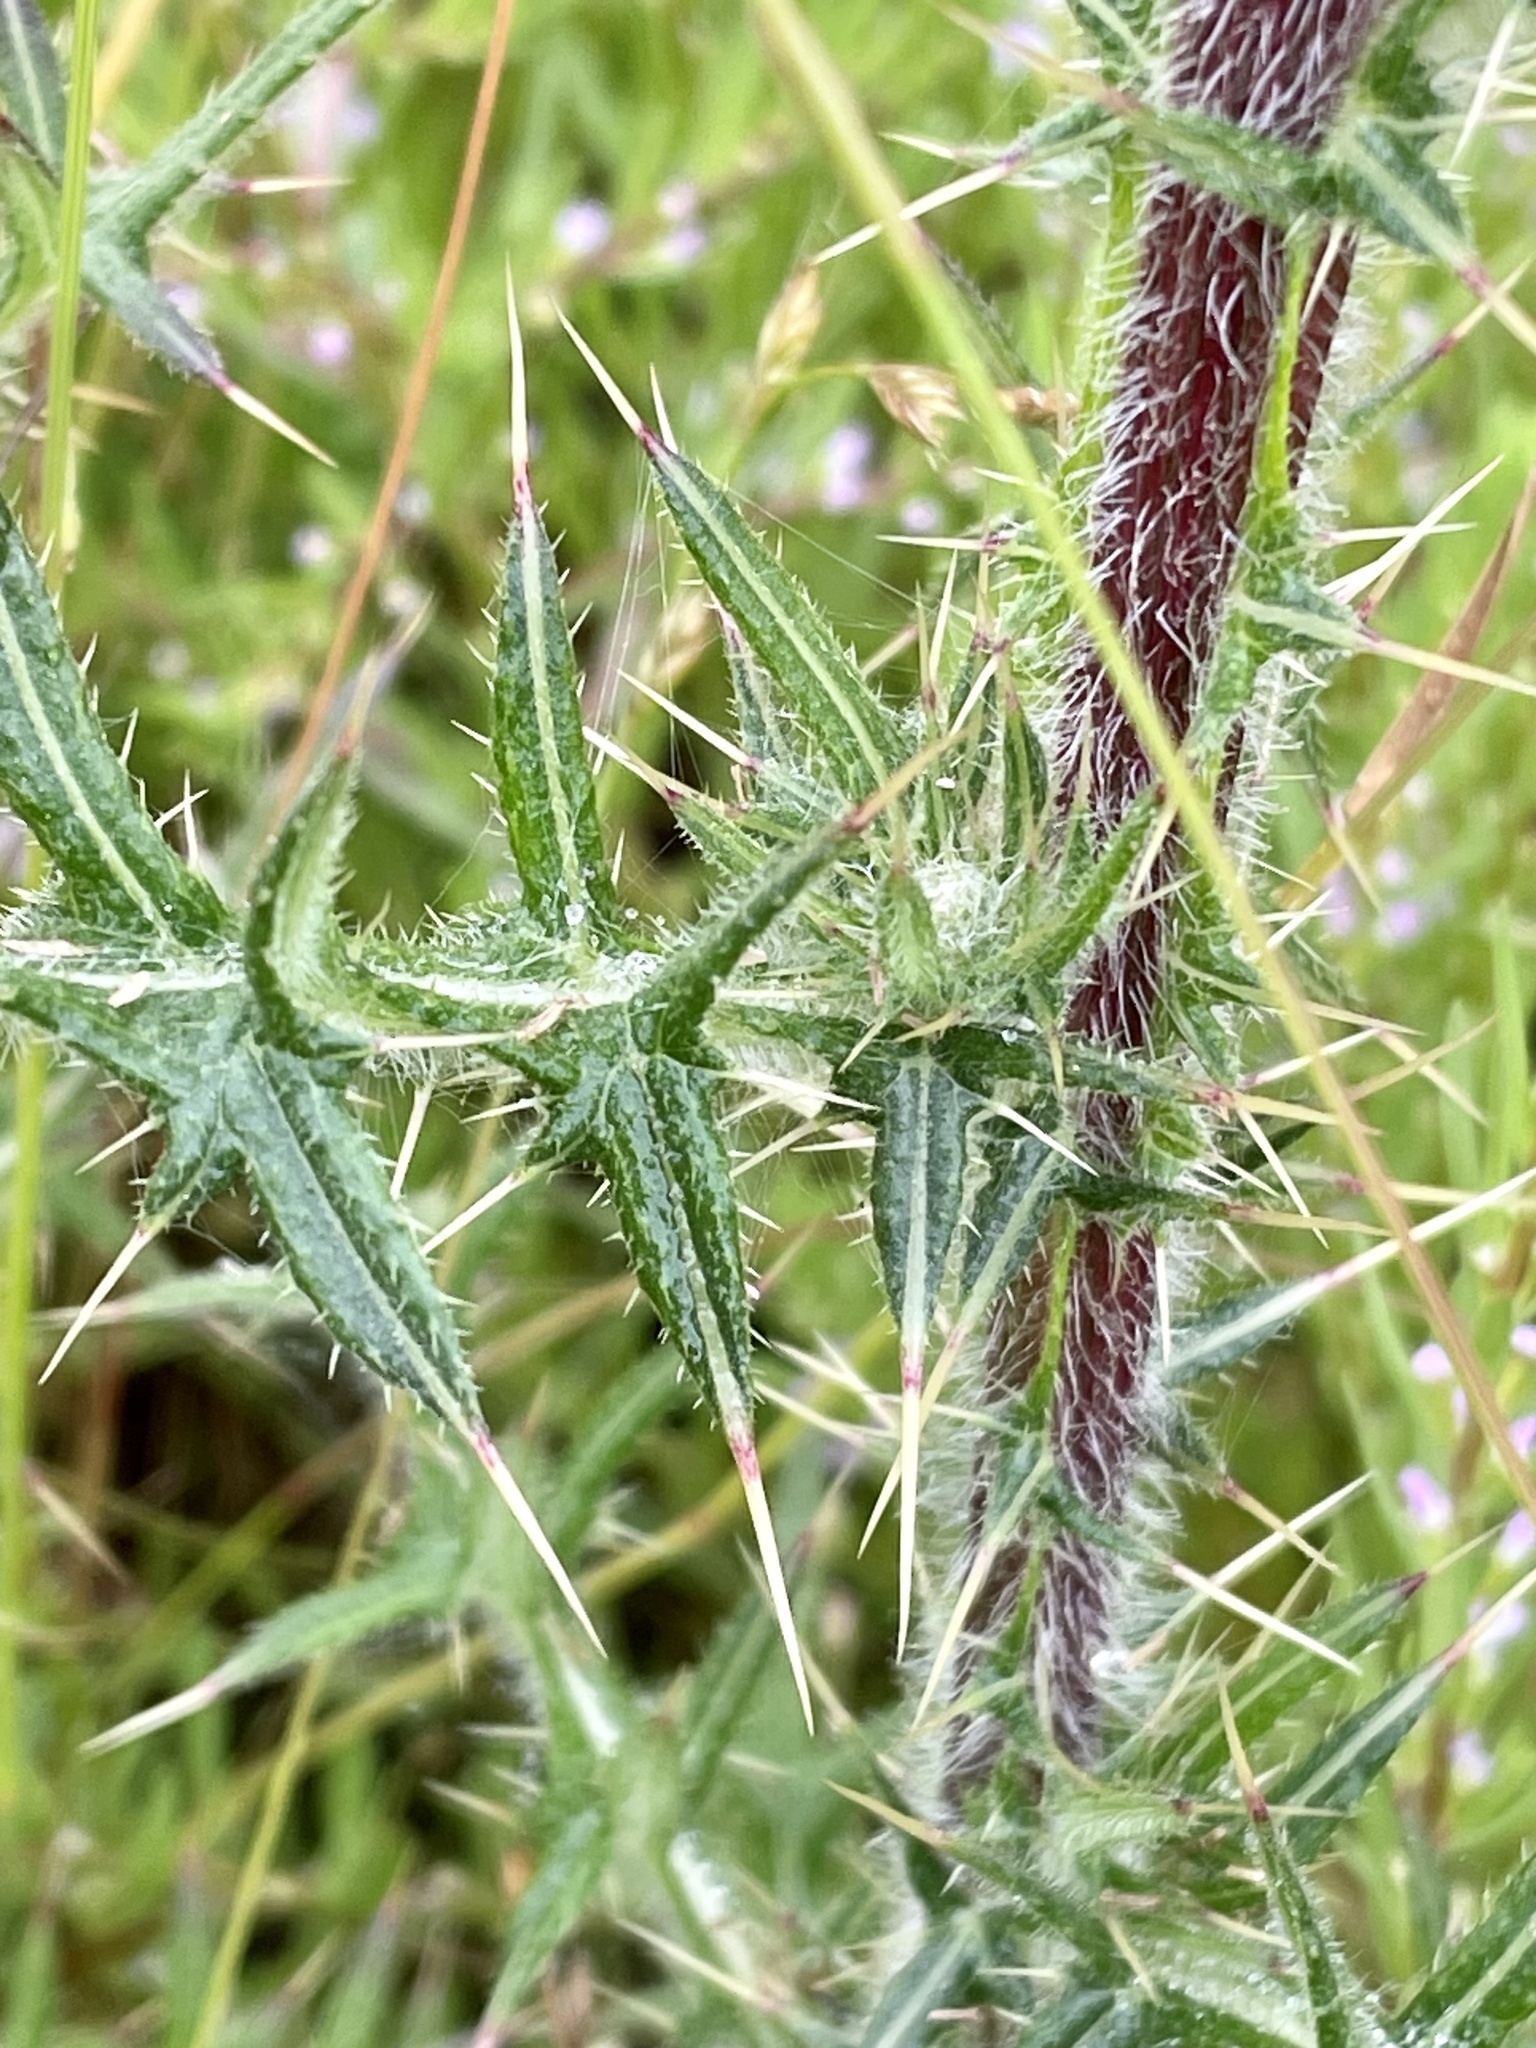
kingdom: Plantae
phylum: Tracheophyta
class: Magnoliopsida
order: Asterales
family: Asteraceae
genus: Cirsium
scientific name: Cirsium vulgare
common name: Bull thistle
